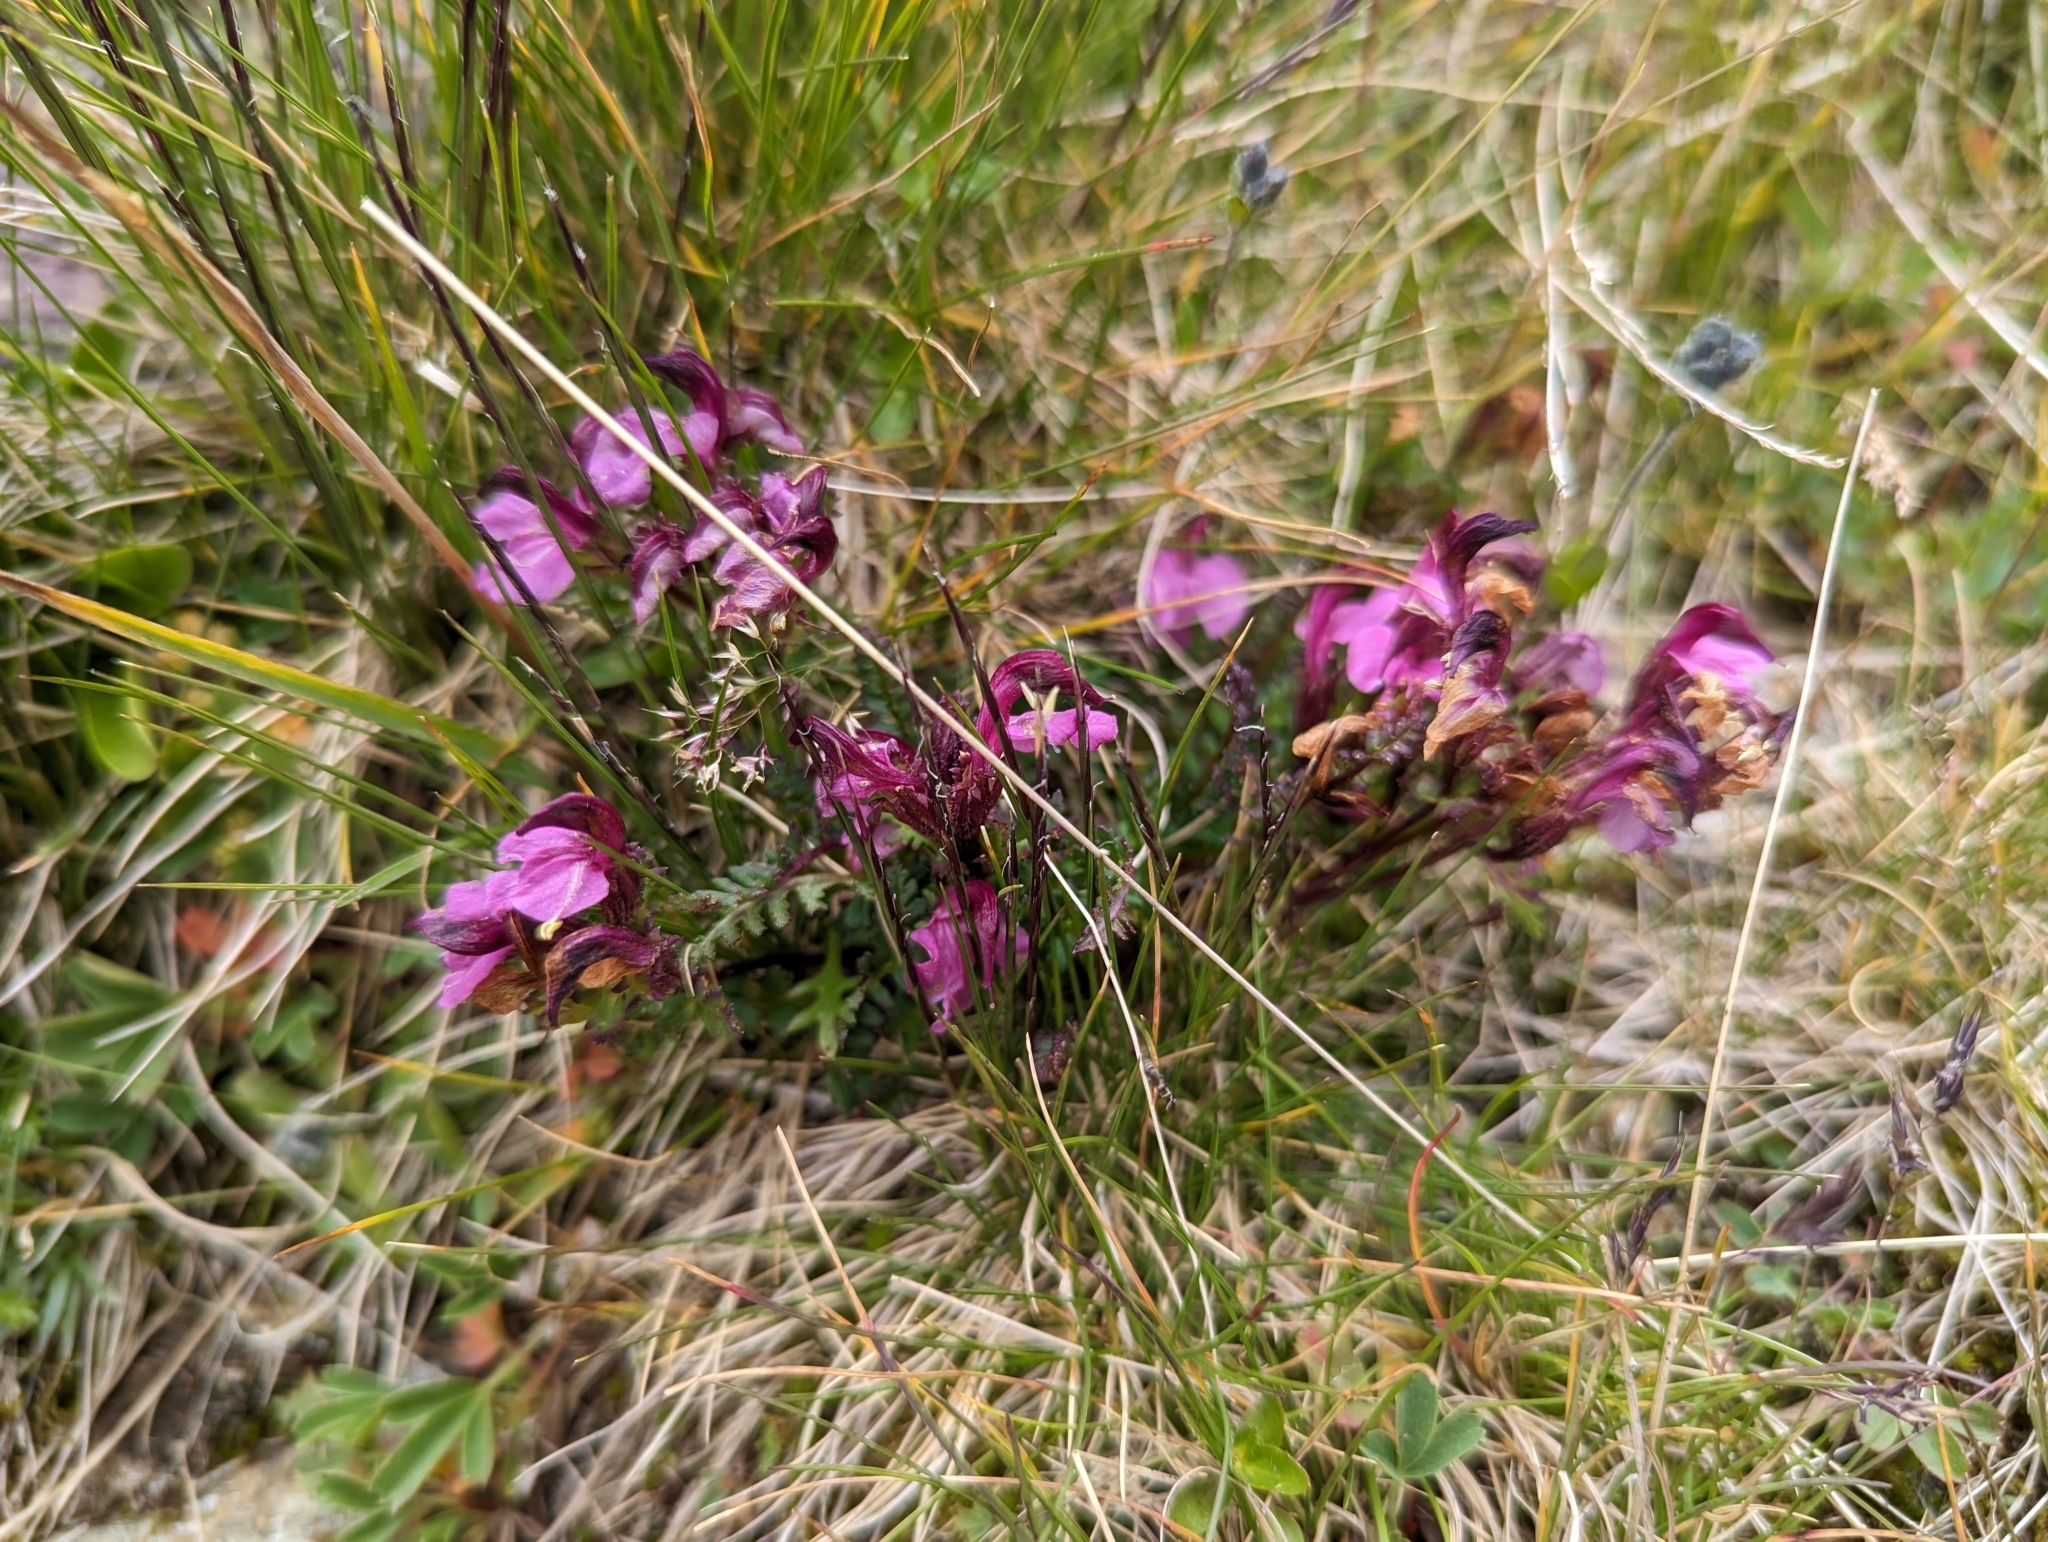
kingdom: Plantae
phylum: Tracheophyta
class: Magnoliopsida
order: Lamiales
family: Orobanchaceae
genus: Pedicularis
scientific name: Pedicularis kerneri
